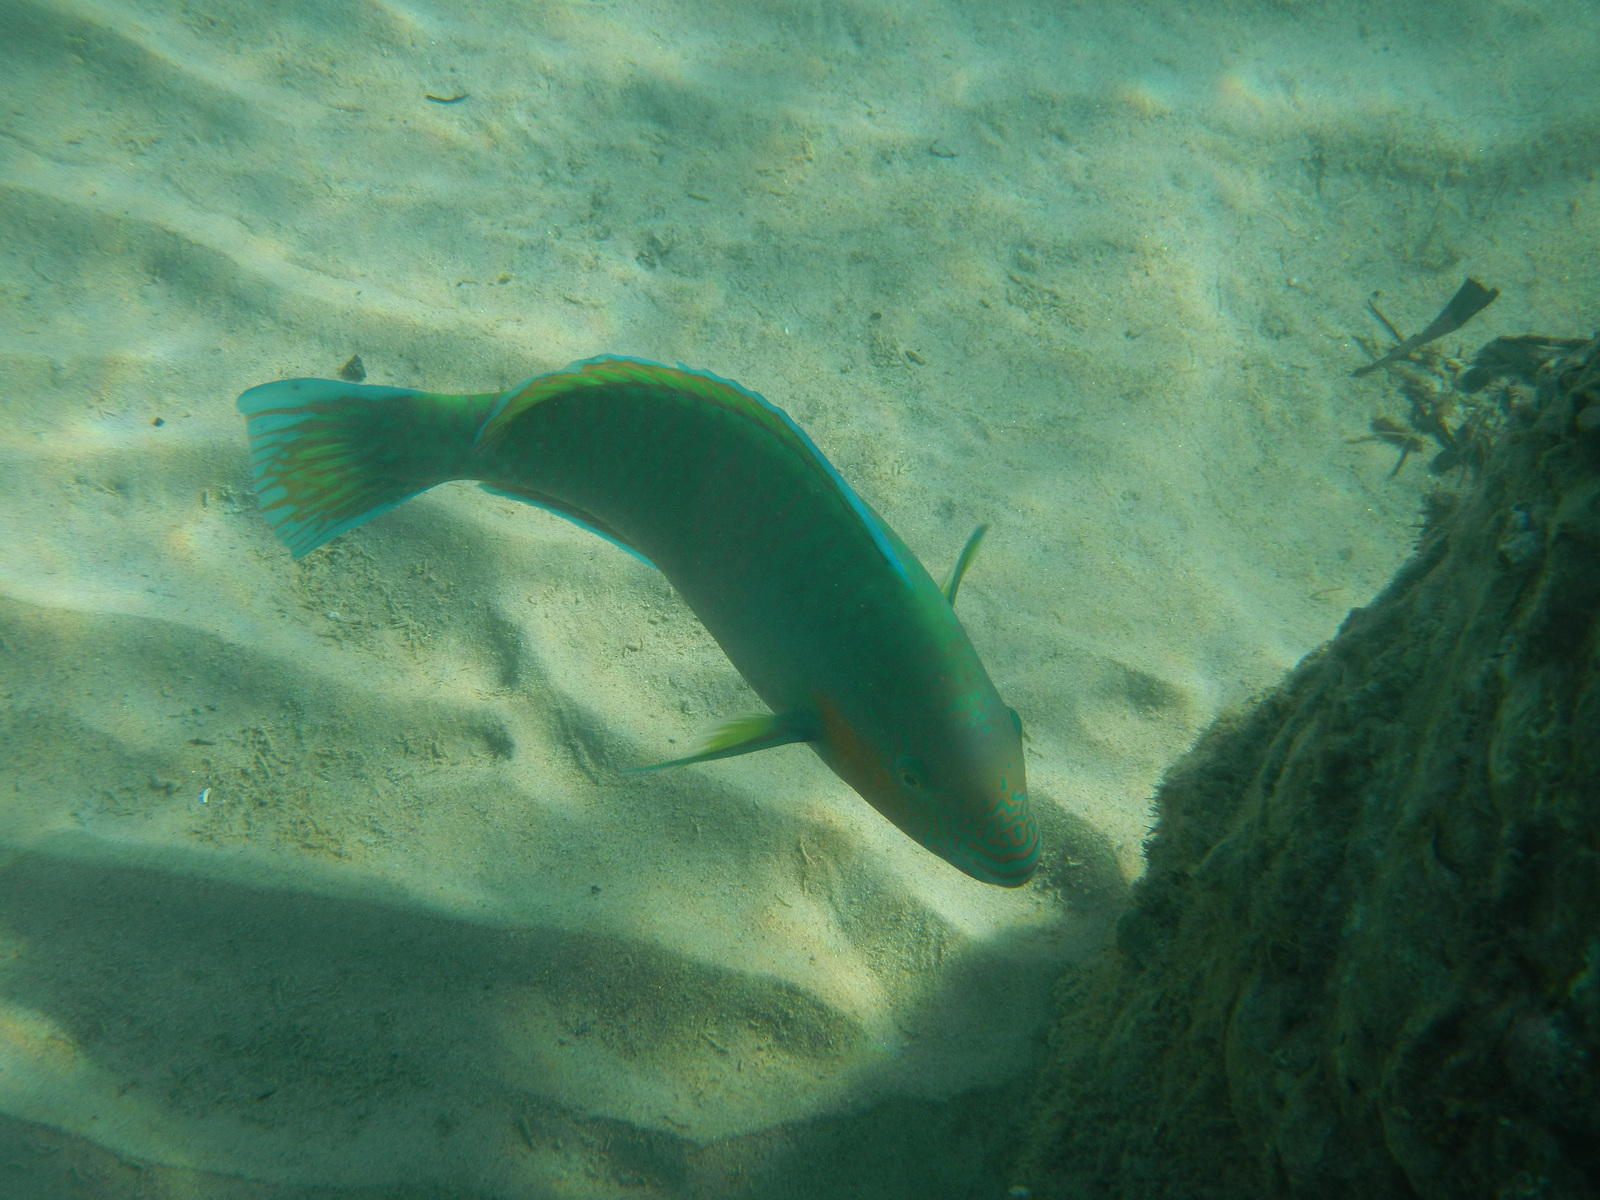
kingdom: Animalia
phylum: Chordata
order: Perciformes
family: Scaridae
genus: Scarus
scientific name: Scarus rivulatus
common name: Surf parrotfish
